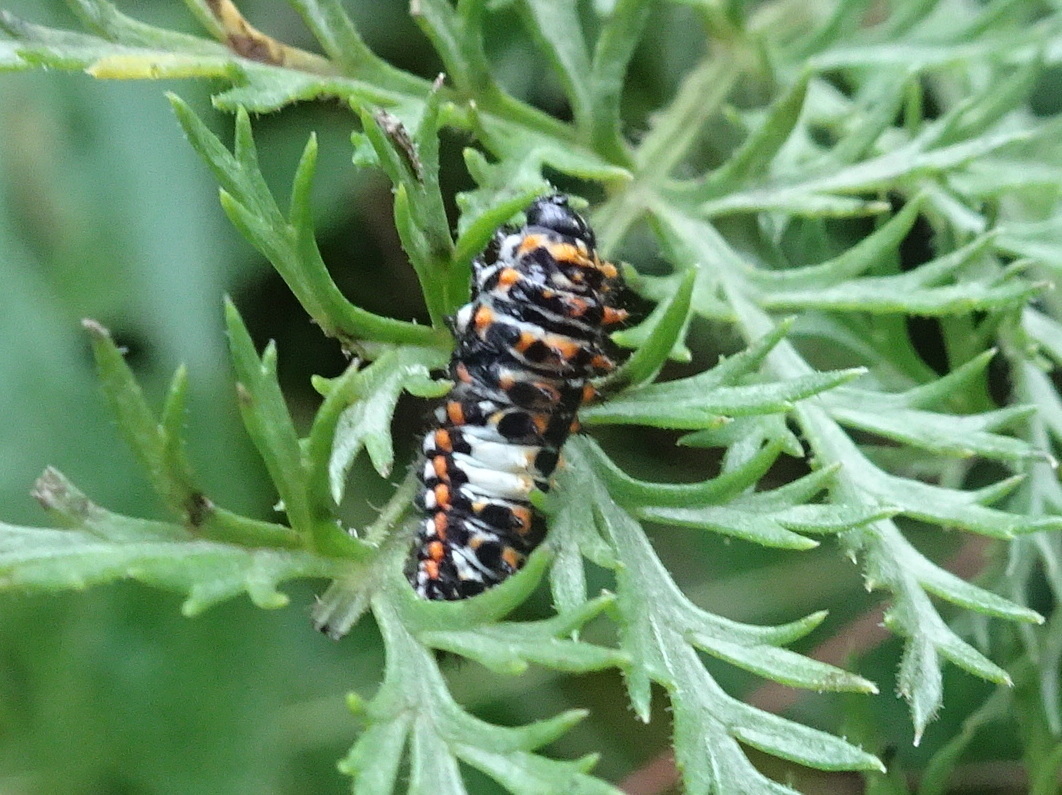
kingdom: Animalia
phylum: Arthropoda
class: Insecta
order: Lepidoptera
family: Papilionidae
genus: Papilio
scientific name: Papilio machaon
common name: Swallowtail
